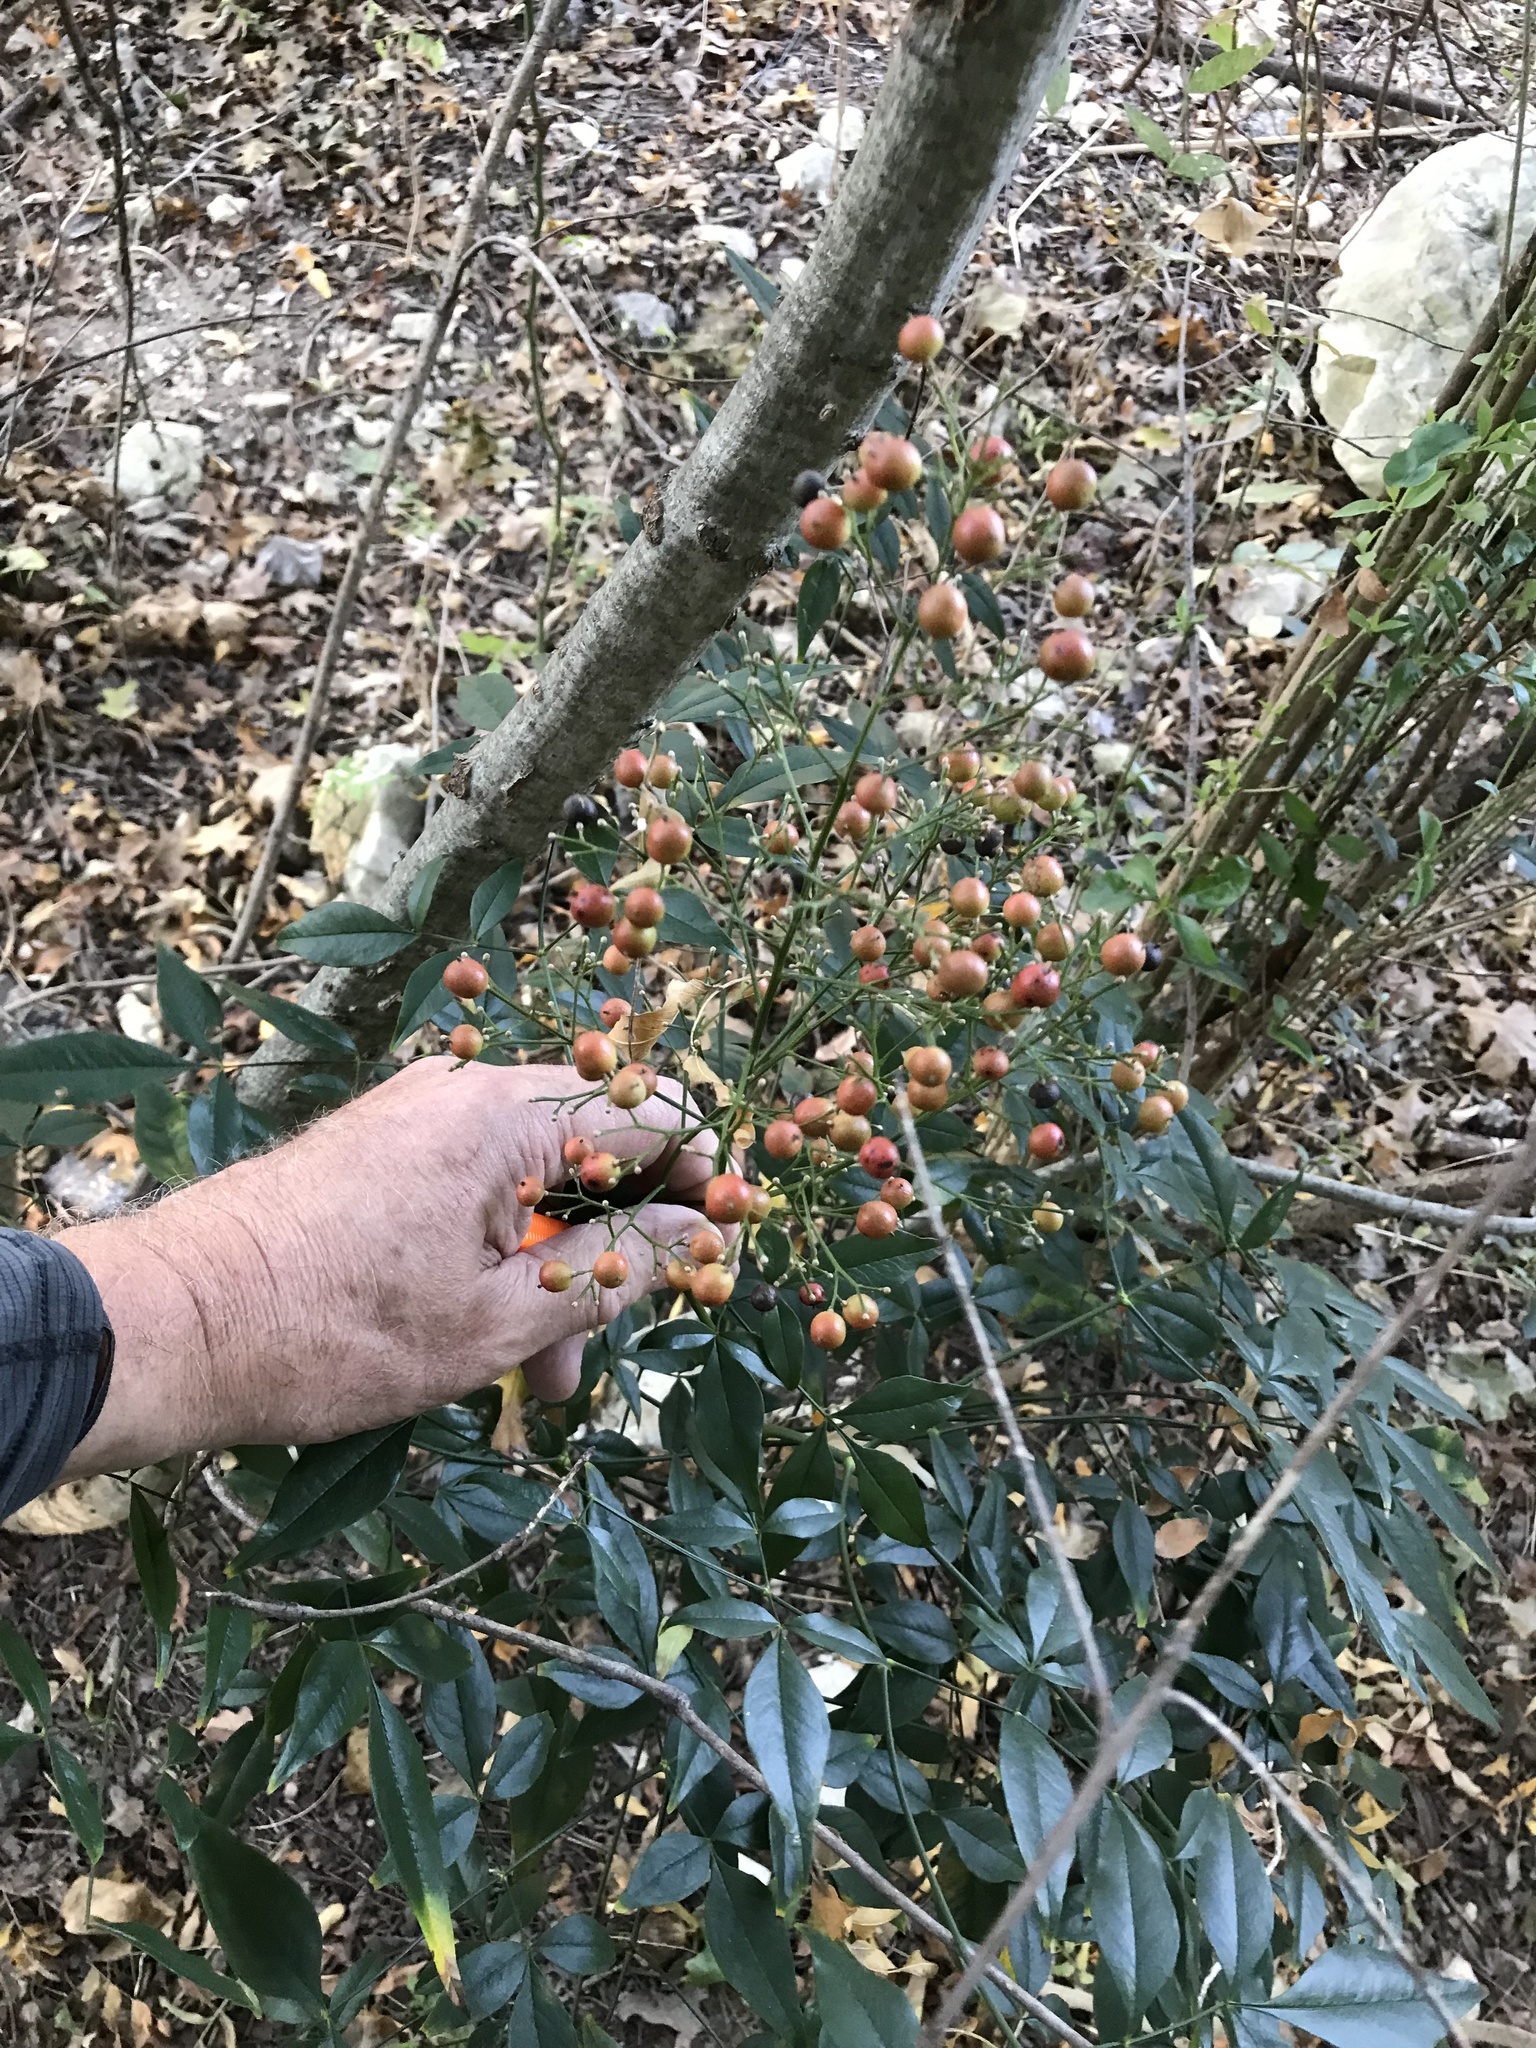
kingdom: Plantae
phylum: Tracheophyta
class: Magnoliopsida
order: Ranunculales
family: Berberidaceae
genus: Nandina
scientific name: Nandina domestica
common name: Sacred bamboo
